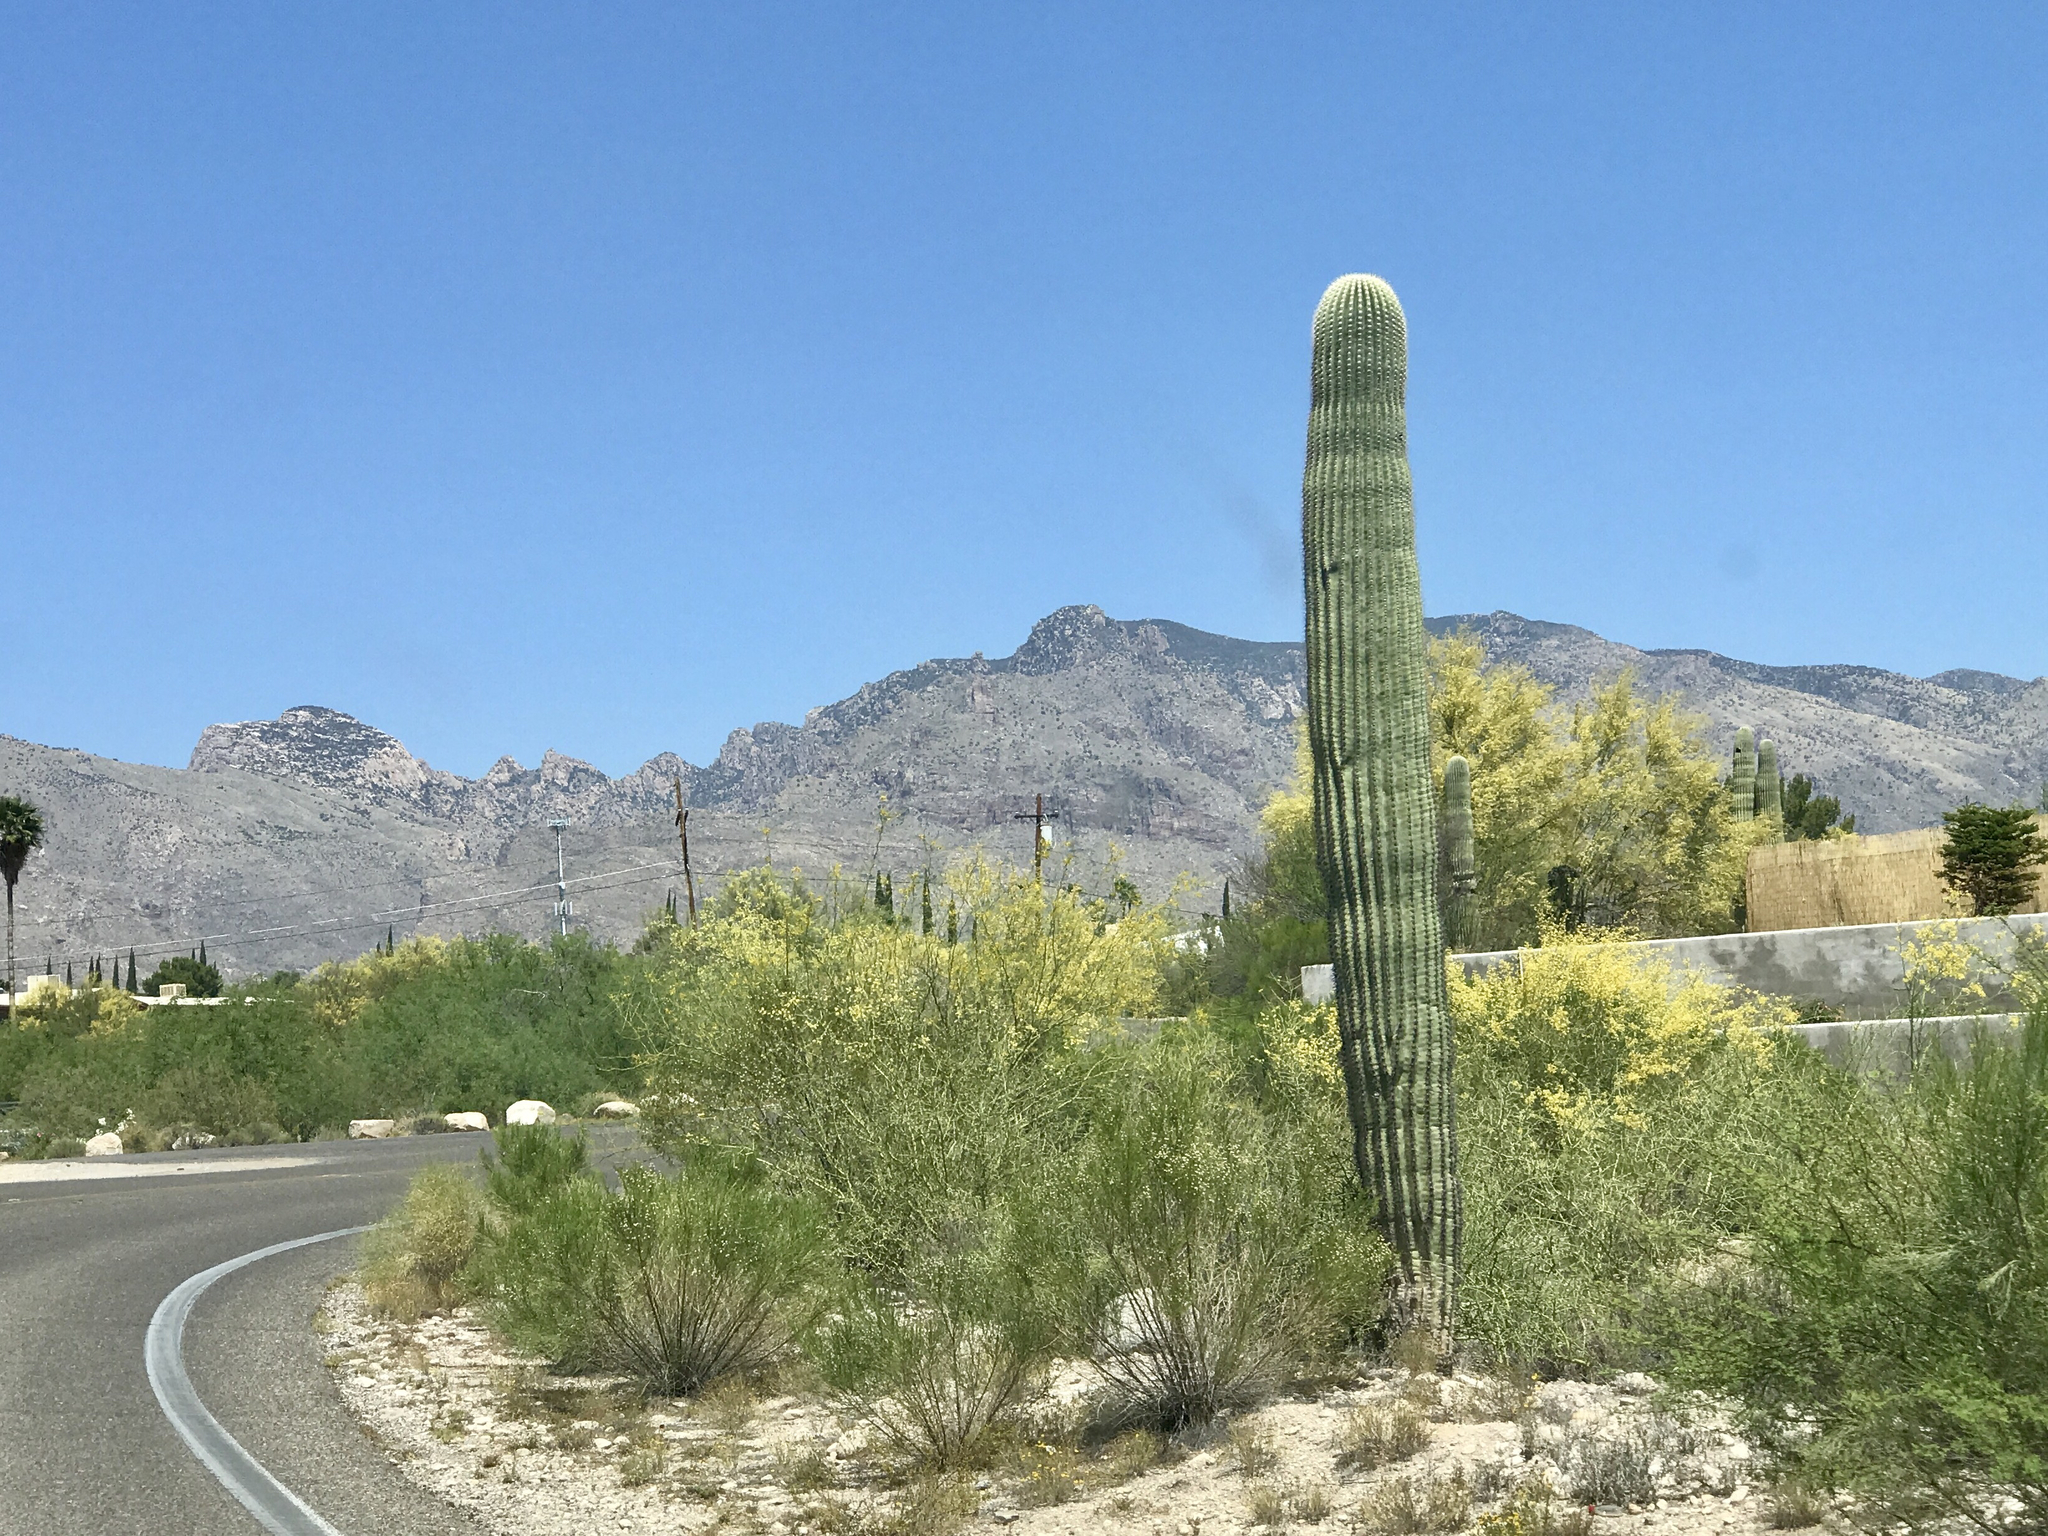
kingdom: Plantae
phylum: Tracheophyta
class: Magnoliopsida
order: Caryophyllales
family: Cactaceae
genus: Carnegiea
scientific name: Carnegiea gigantea
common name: Saguaro
